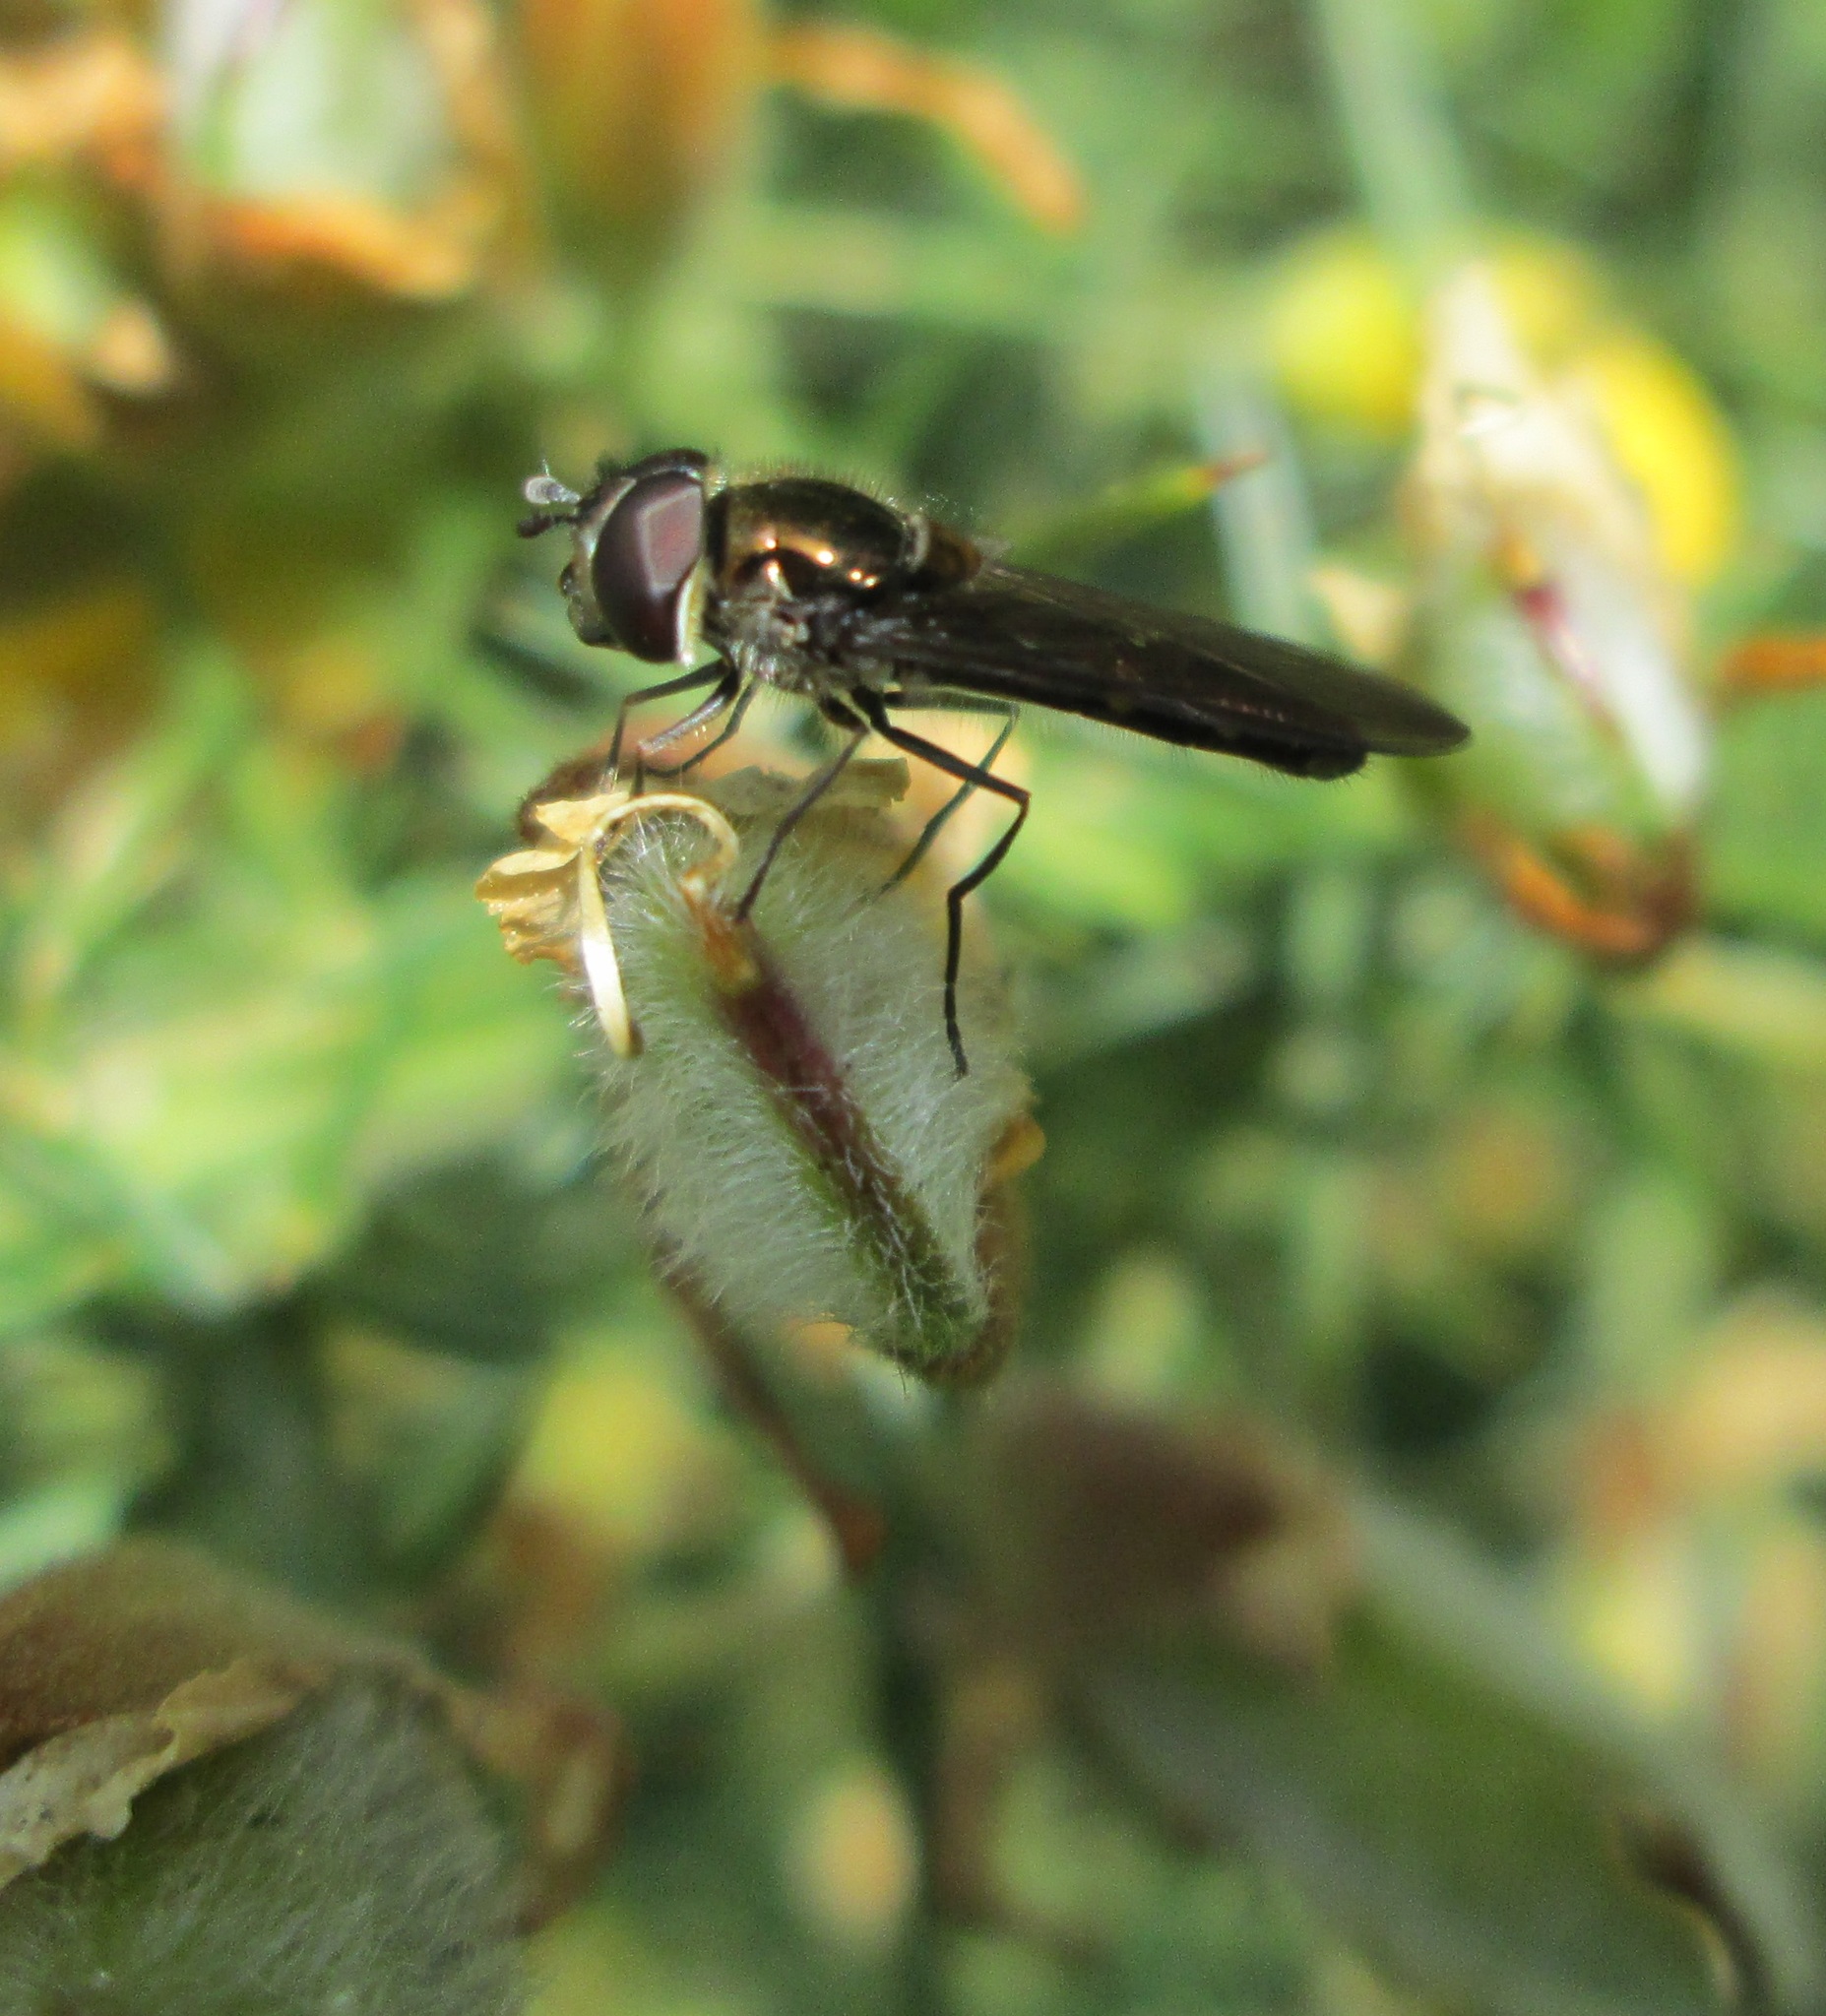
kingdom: Animalia
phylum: Arthropoda
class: Insecta
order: Diptera
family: Syrphidae
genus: Melangyna
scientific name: Melangyna novaezelandiae
